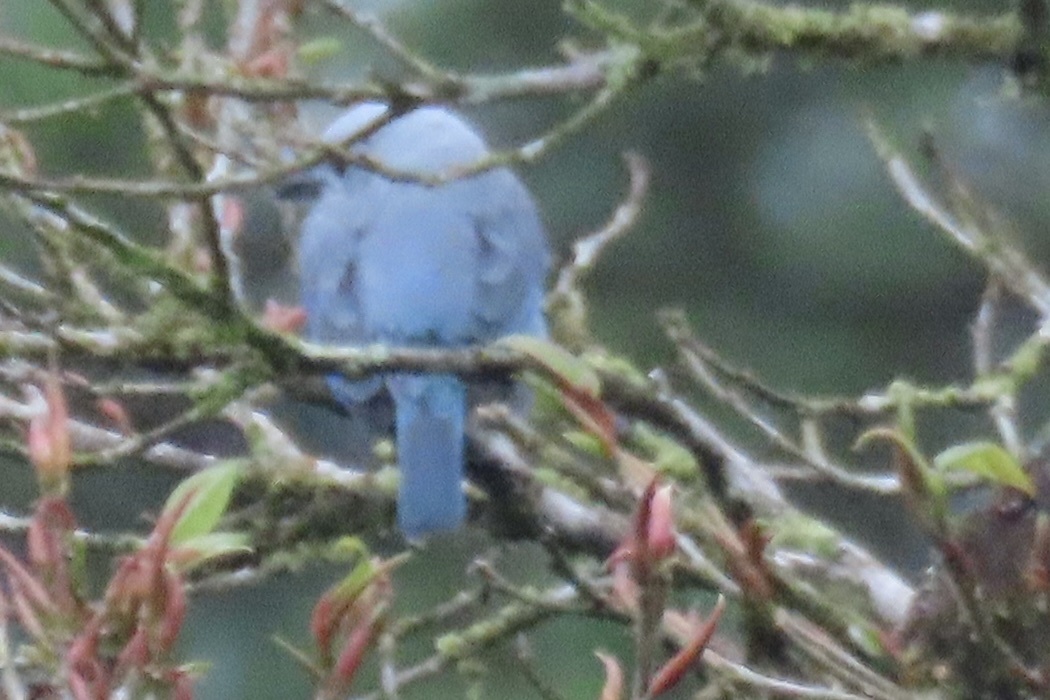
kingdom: Animalia
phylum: Chordata
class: Aves
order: Passeriformes
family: Thraupidae
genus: Thraupis
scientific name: Thraupis episcopus
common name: Blue-grey tanager
